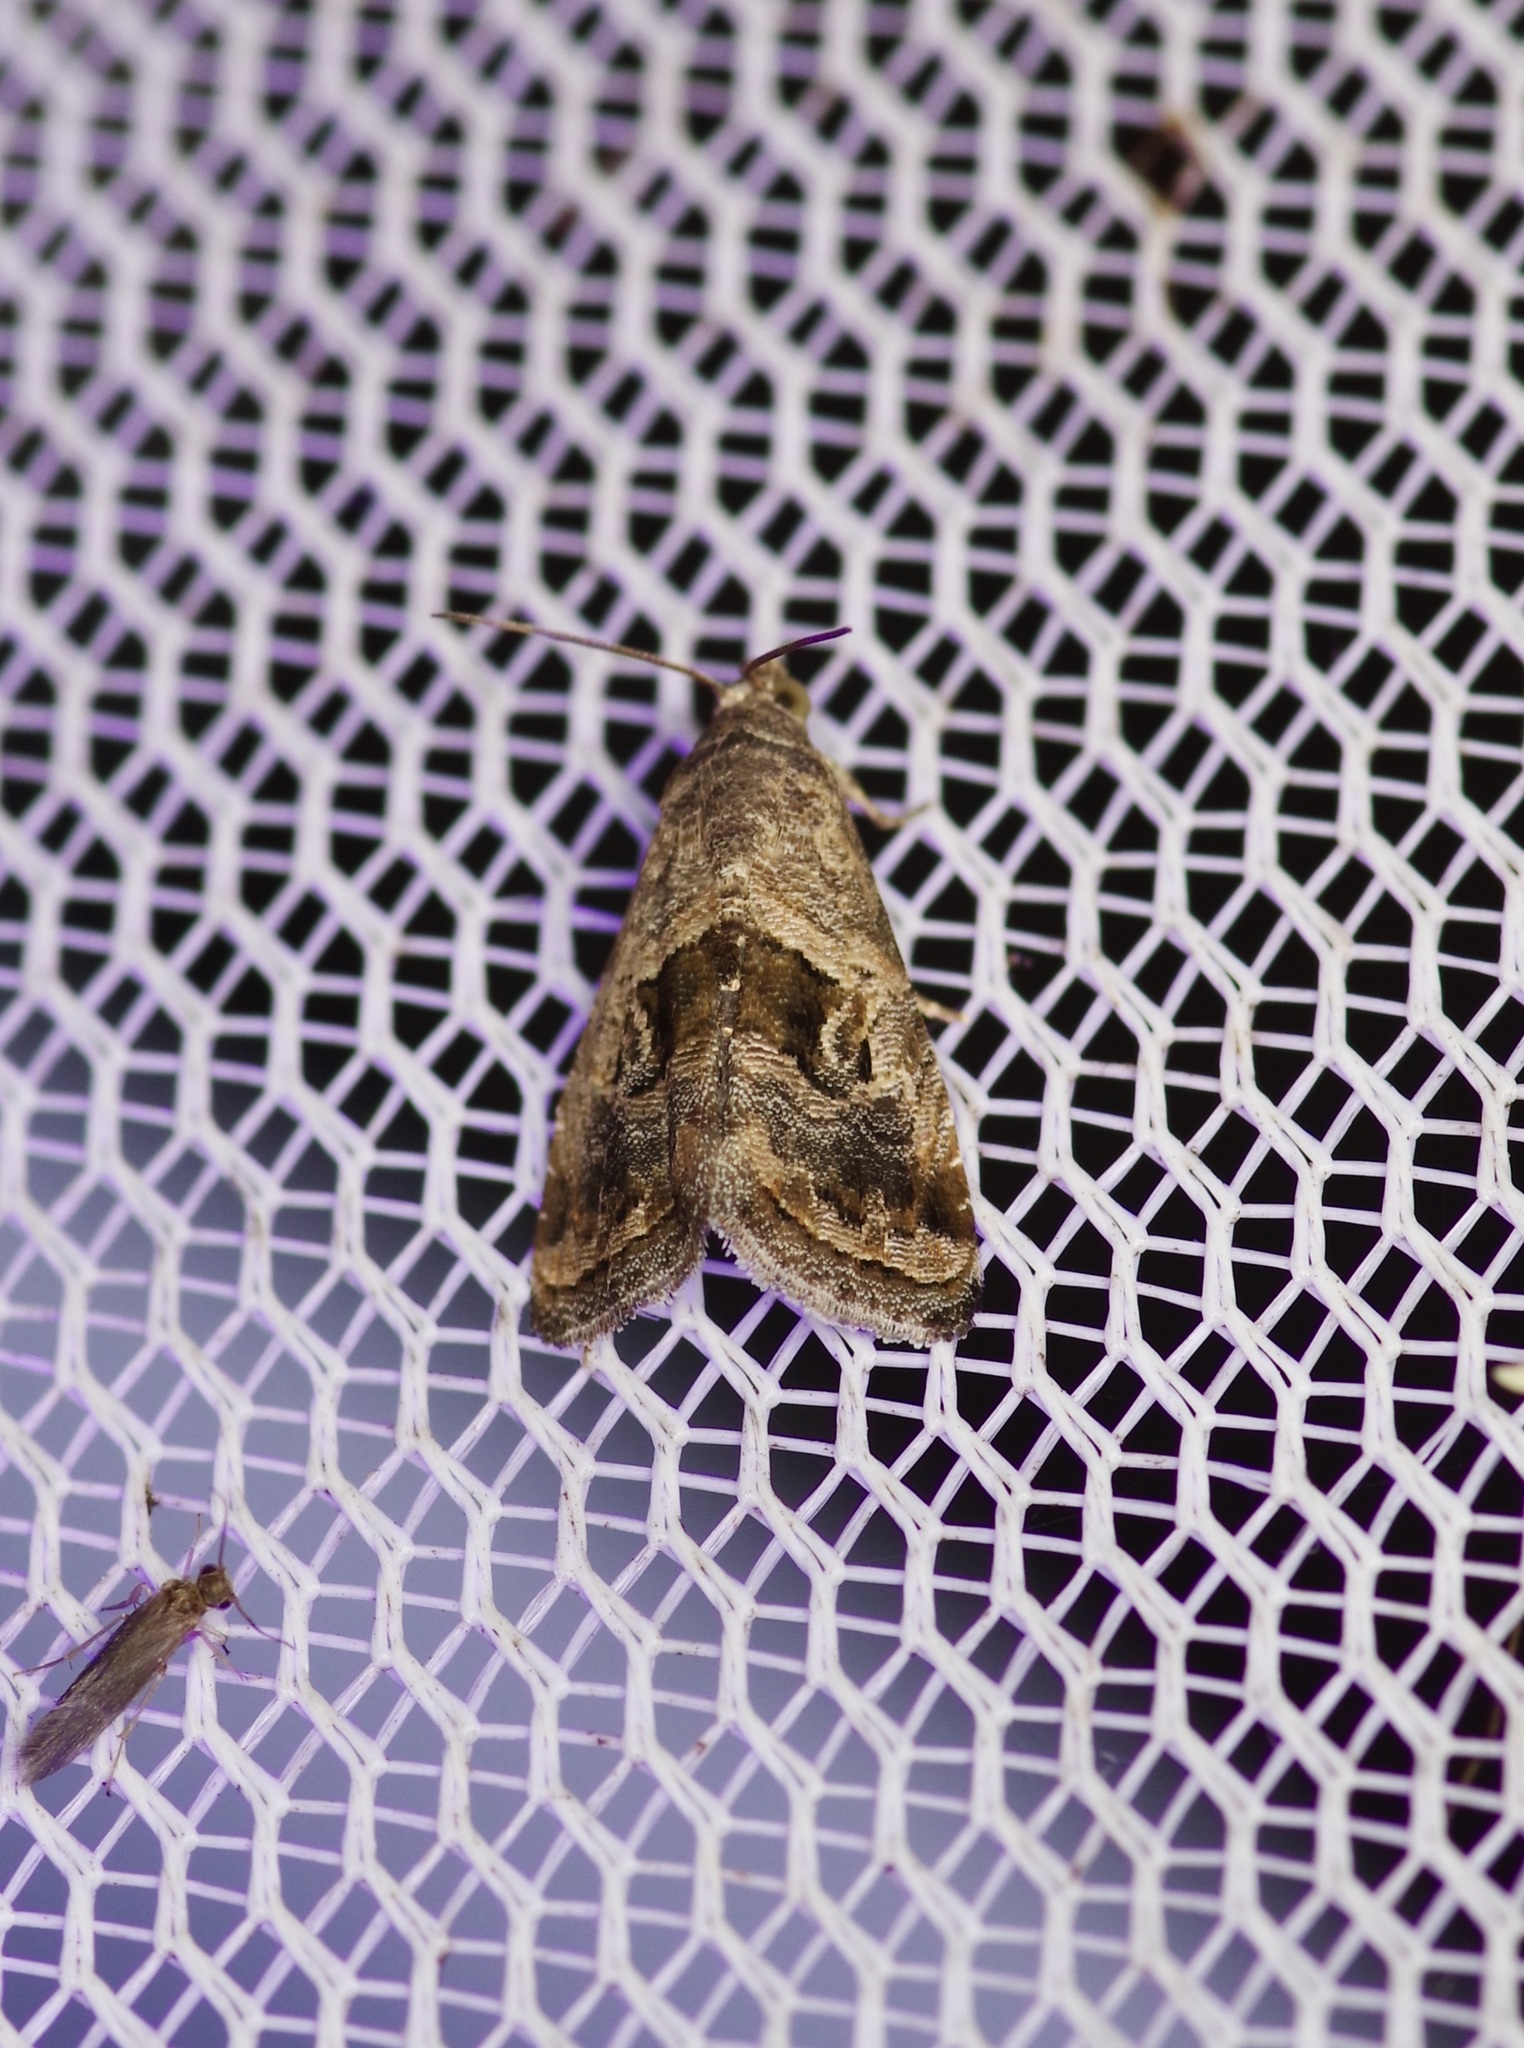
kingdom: Animalia
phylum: Arthropoda
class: Insecta
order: Lepidoptera
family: Noctuidae
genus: Tripudia
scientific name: Tripudia quadrifera
